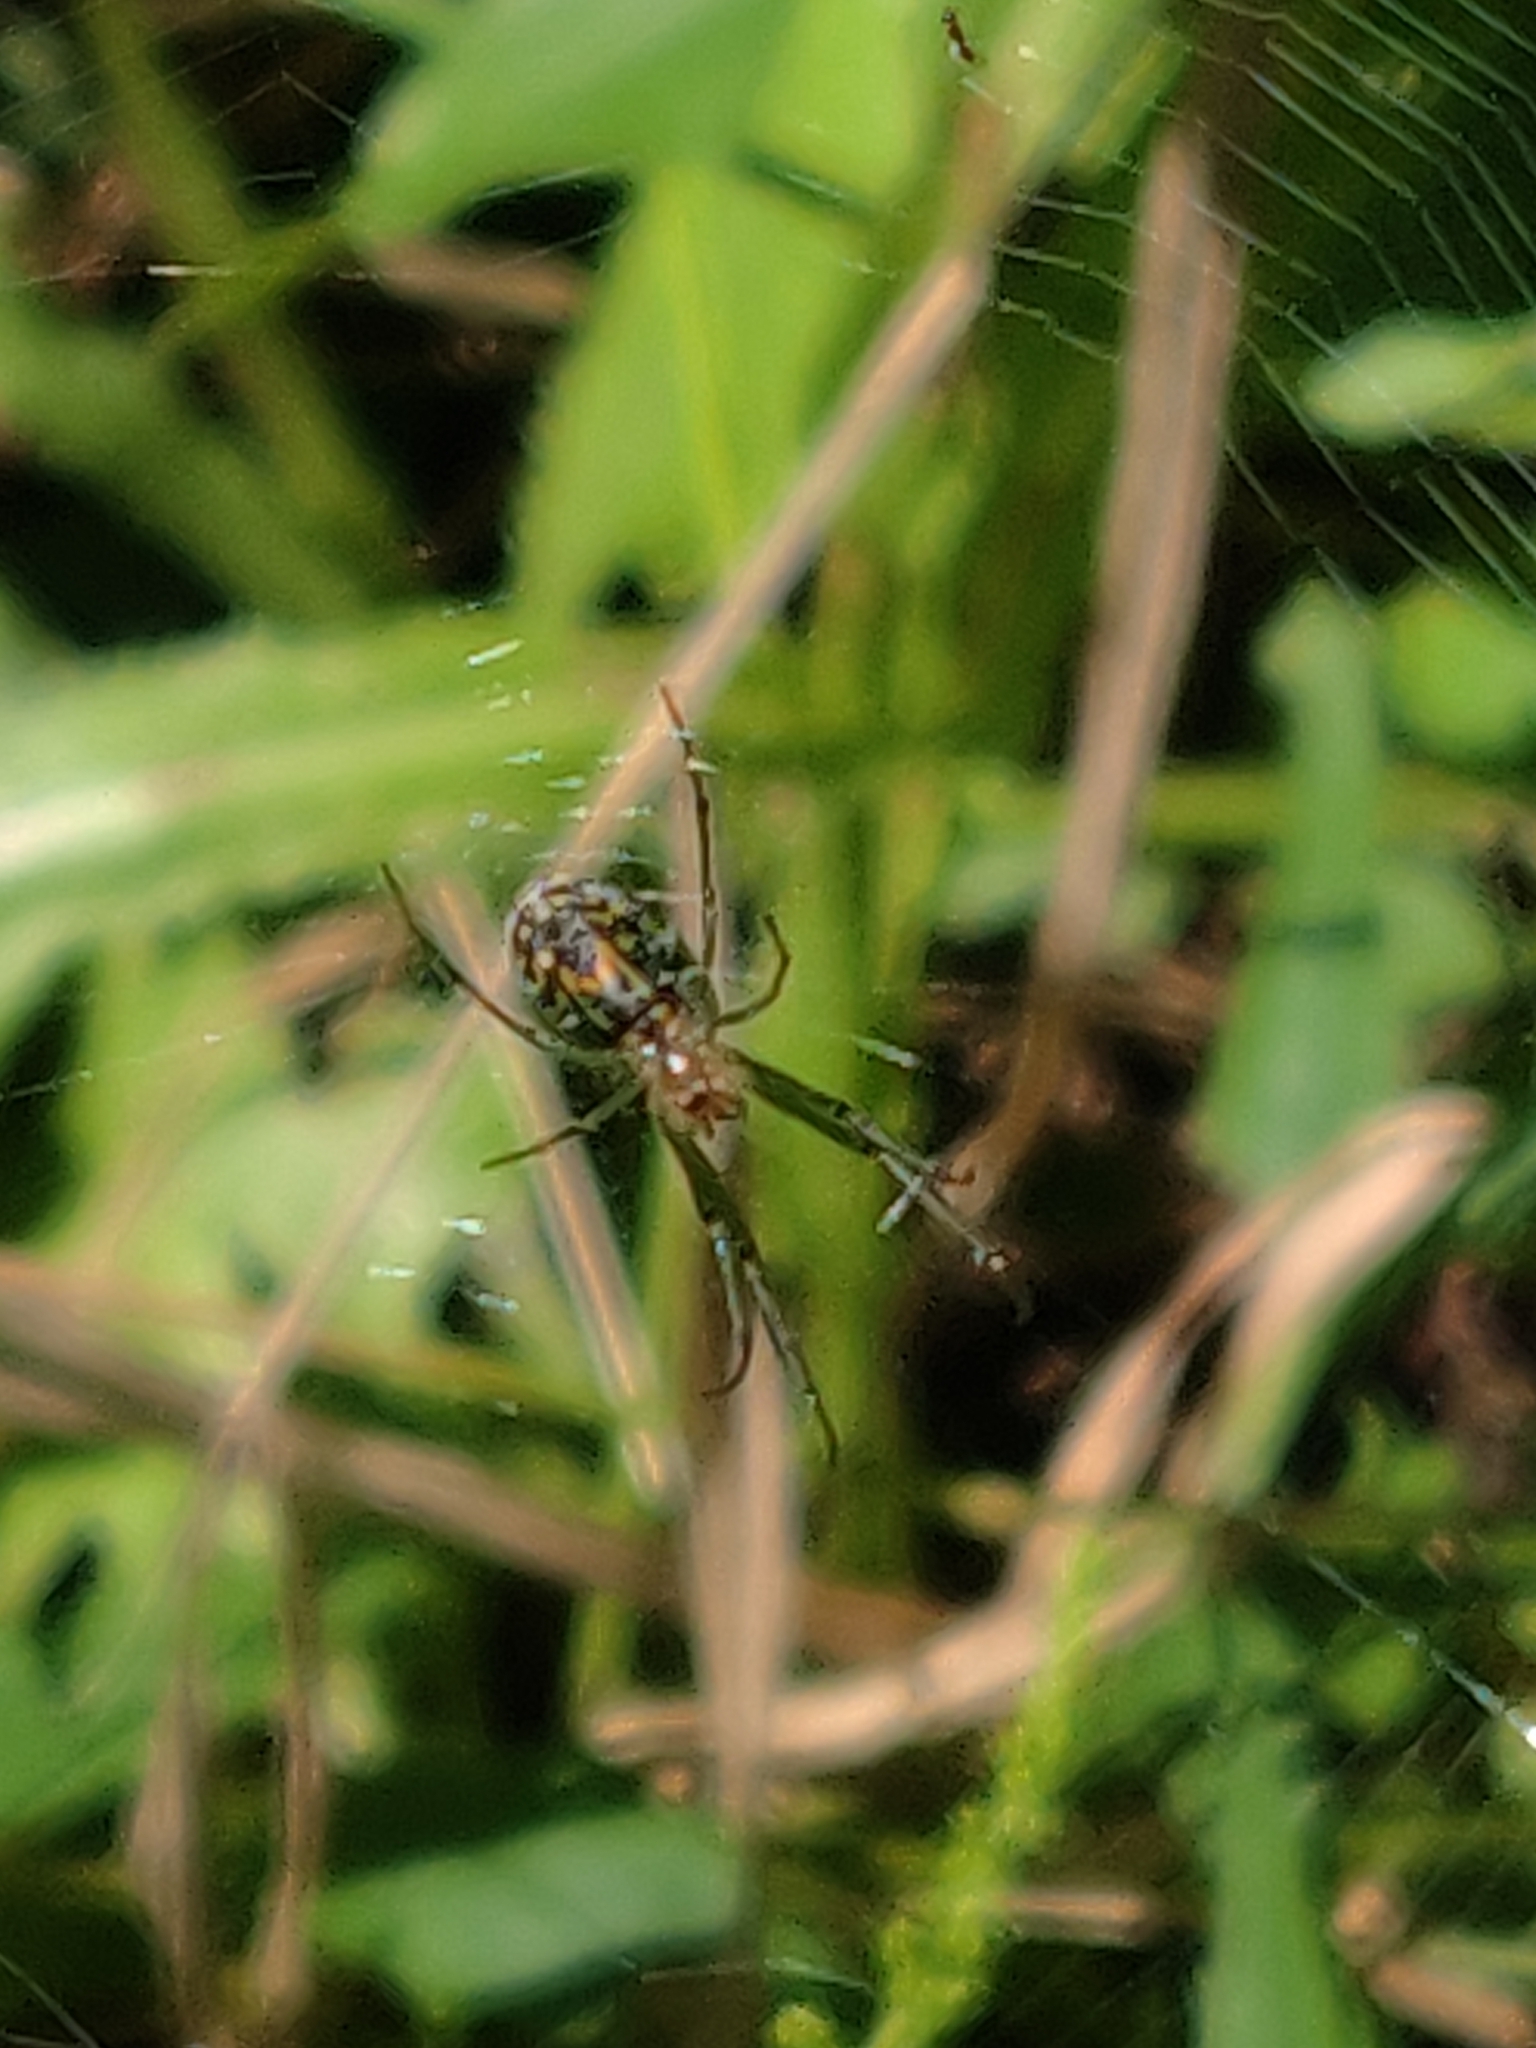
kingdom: Animalia
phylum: Arthropoda
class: Arachnida
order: Araneae
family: Tetragnathidae
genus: Leucauge
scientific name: Leucauge venusta
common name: Longjawed orb weavers
